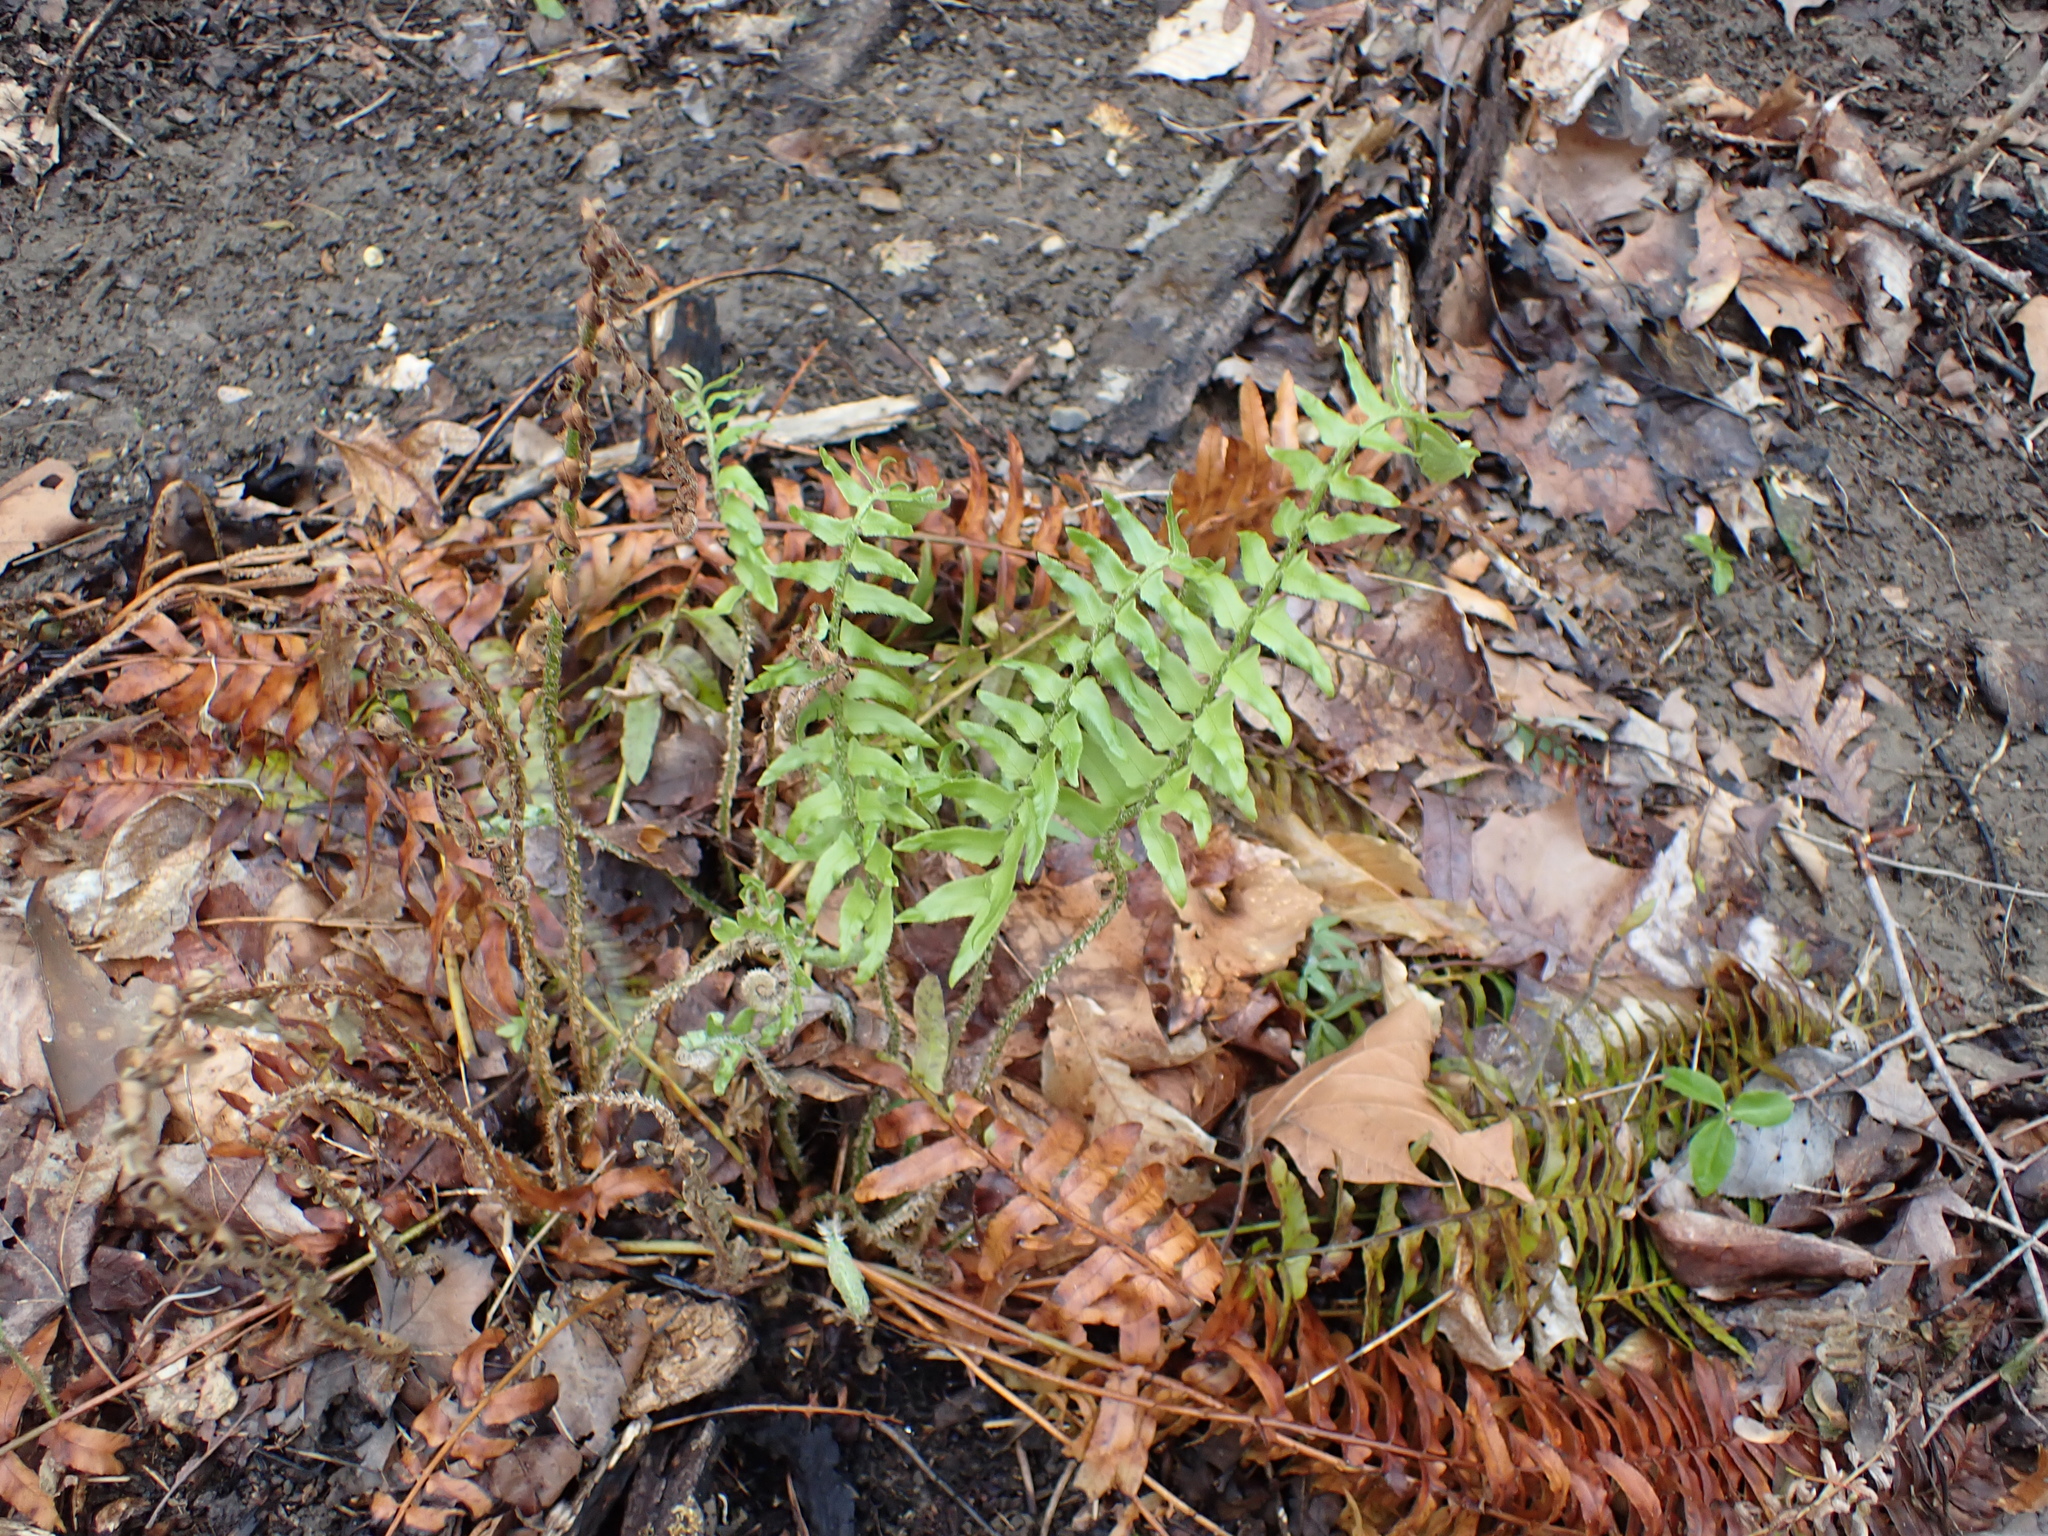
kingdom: Plantae
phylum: Tracheophyta
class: Polypodiopsida
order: Polypodiales
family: Dryopteridaceae
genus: Polystichum
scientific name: Polystichum acrostichoides
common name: Christmas fern
